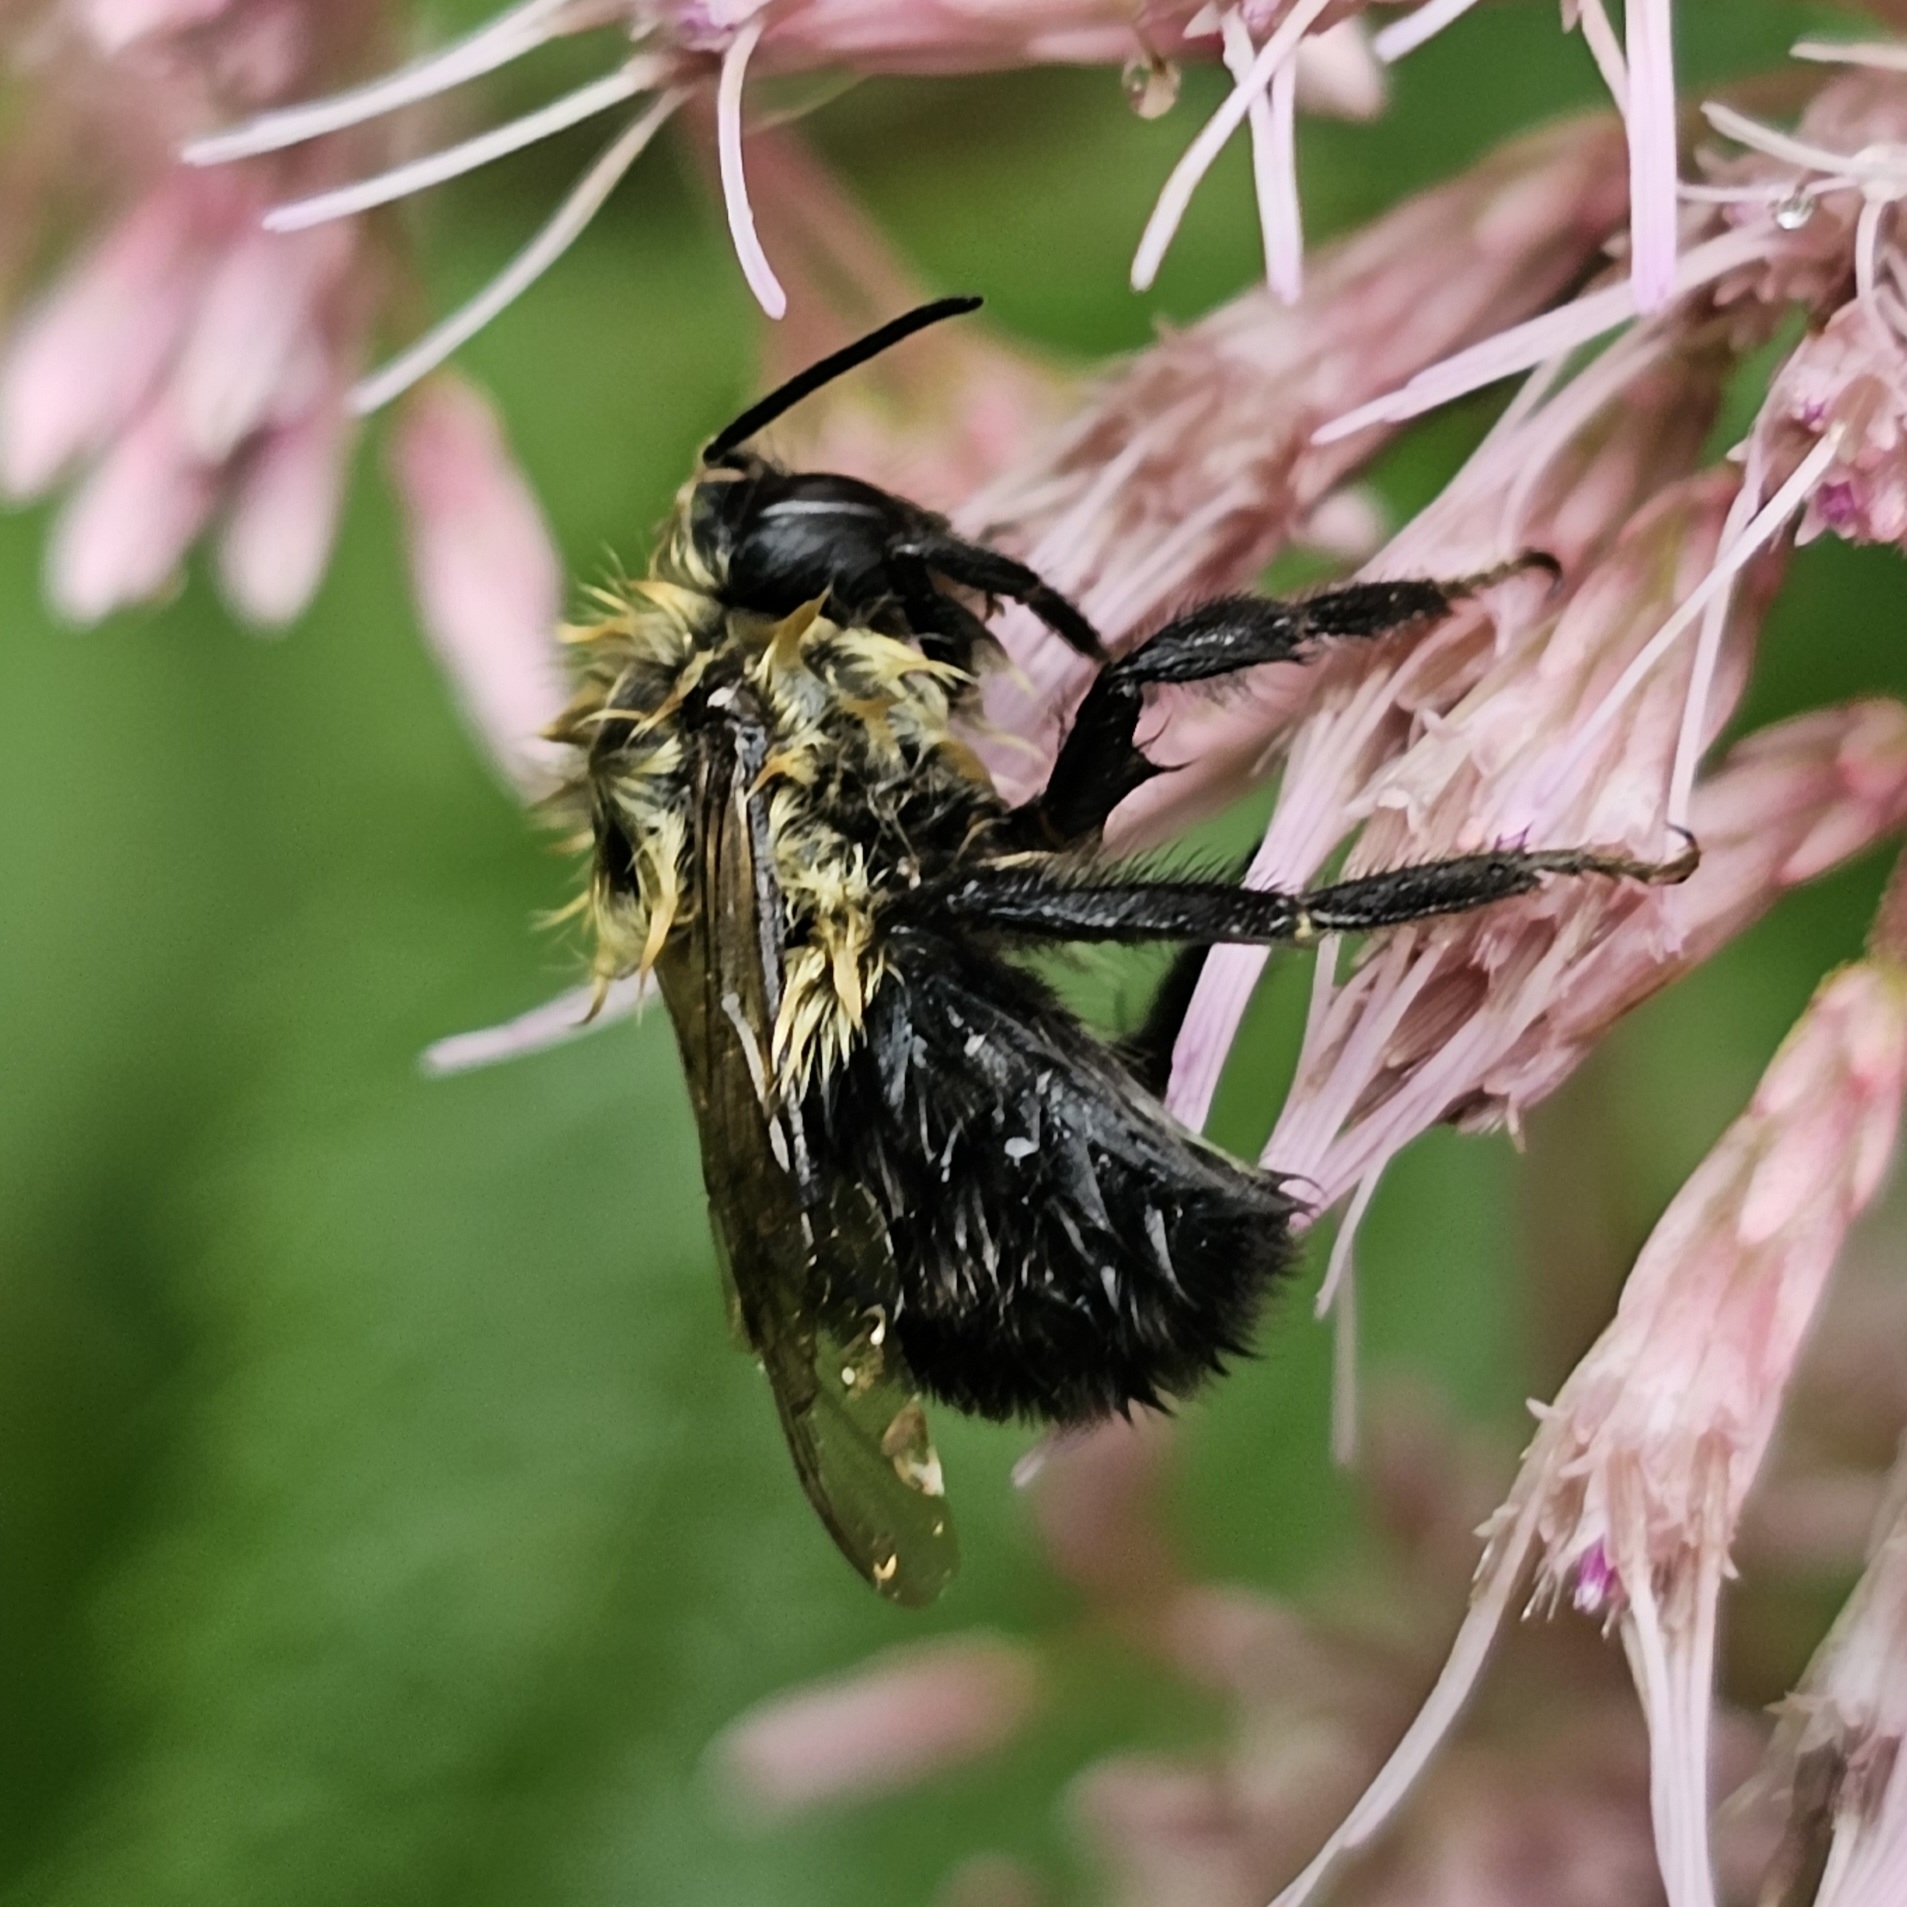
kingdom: Animalia
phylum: Arthropoda
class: Insecta
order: Hymenoptera
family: Apidae
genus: Bombus
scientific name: Bombus impatiens
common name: Common eastern bumble bee
